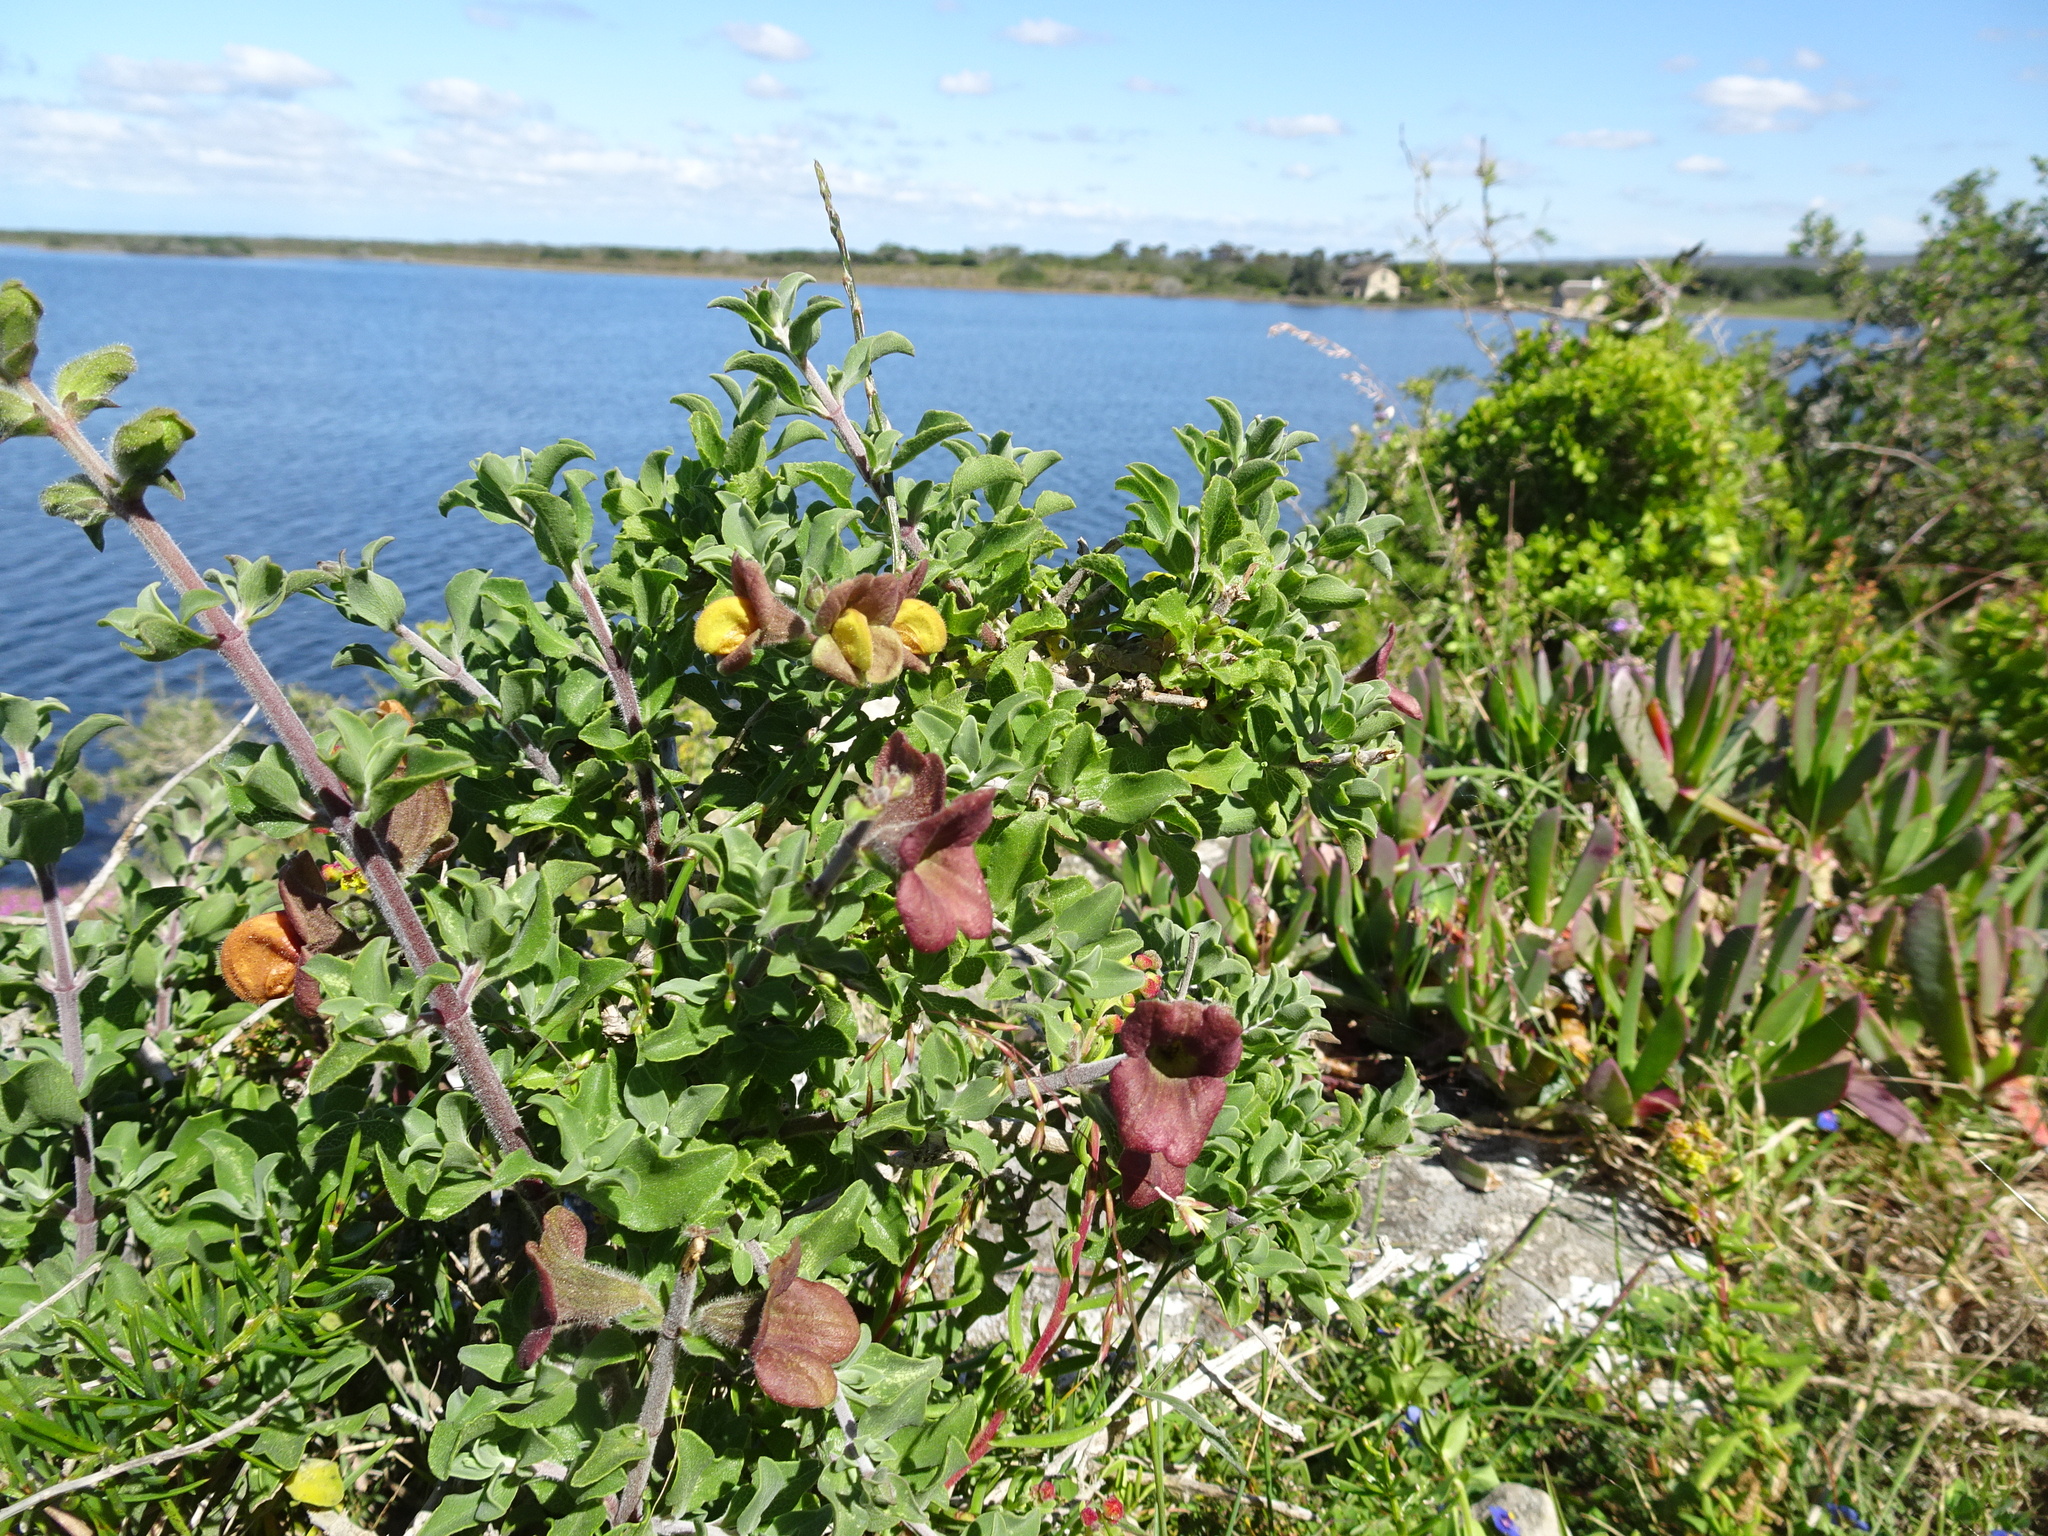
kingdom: Plantae
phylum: Tracheophyta
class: Magnoliopsida
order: Lamiales
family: Lamiaceae
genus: Salvia
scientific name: Salvia aurea
